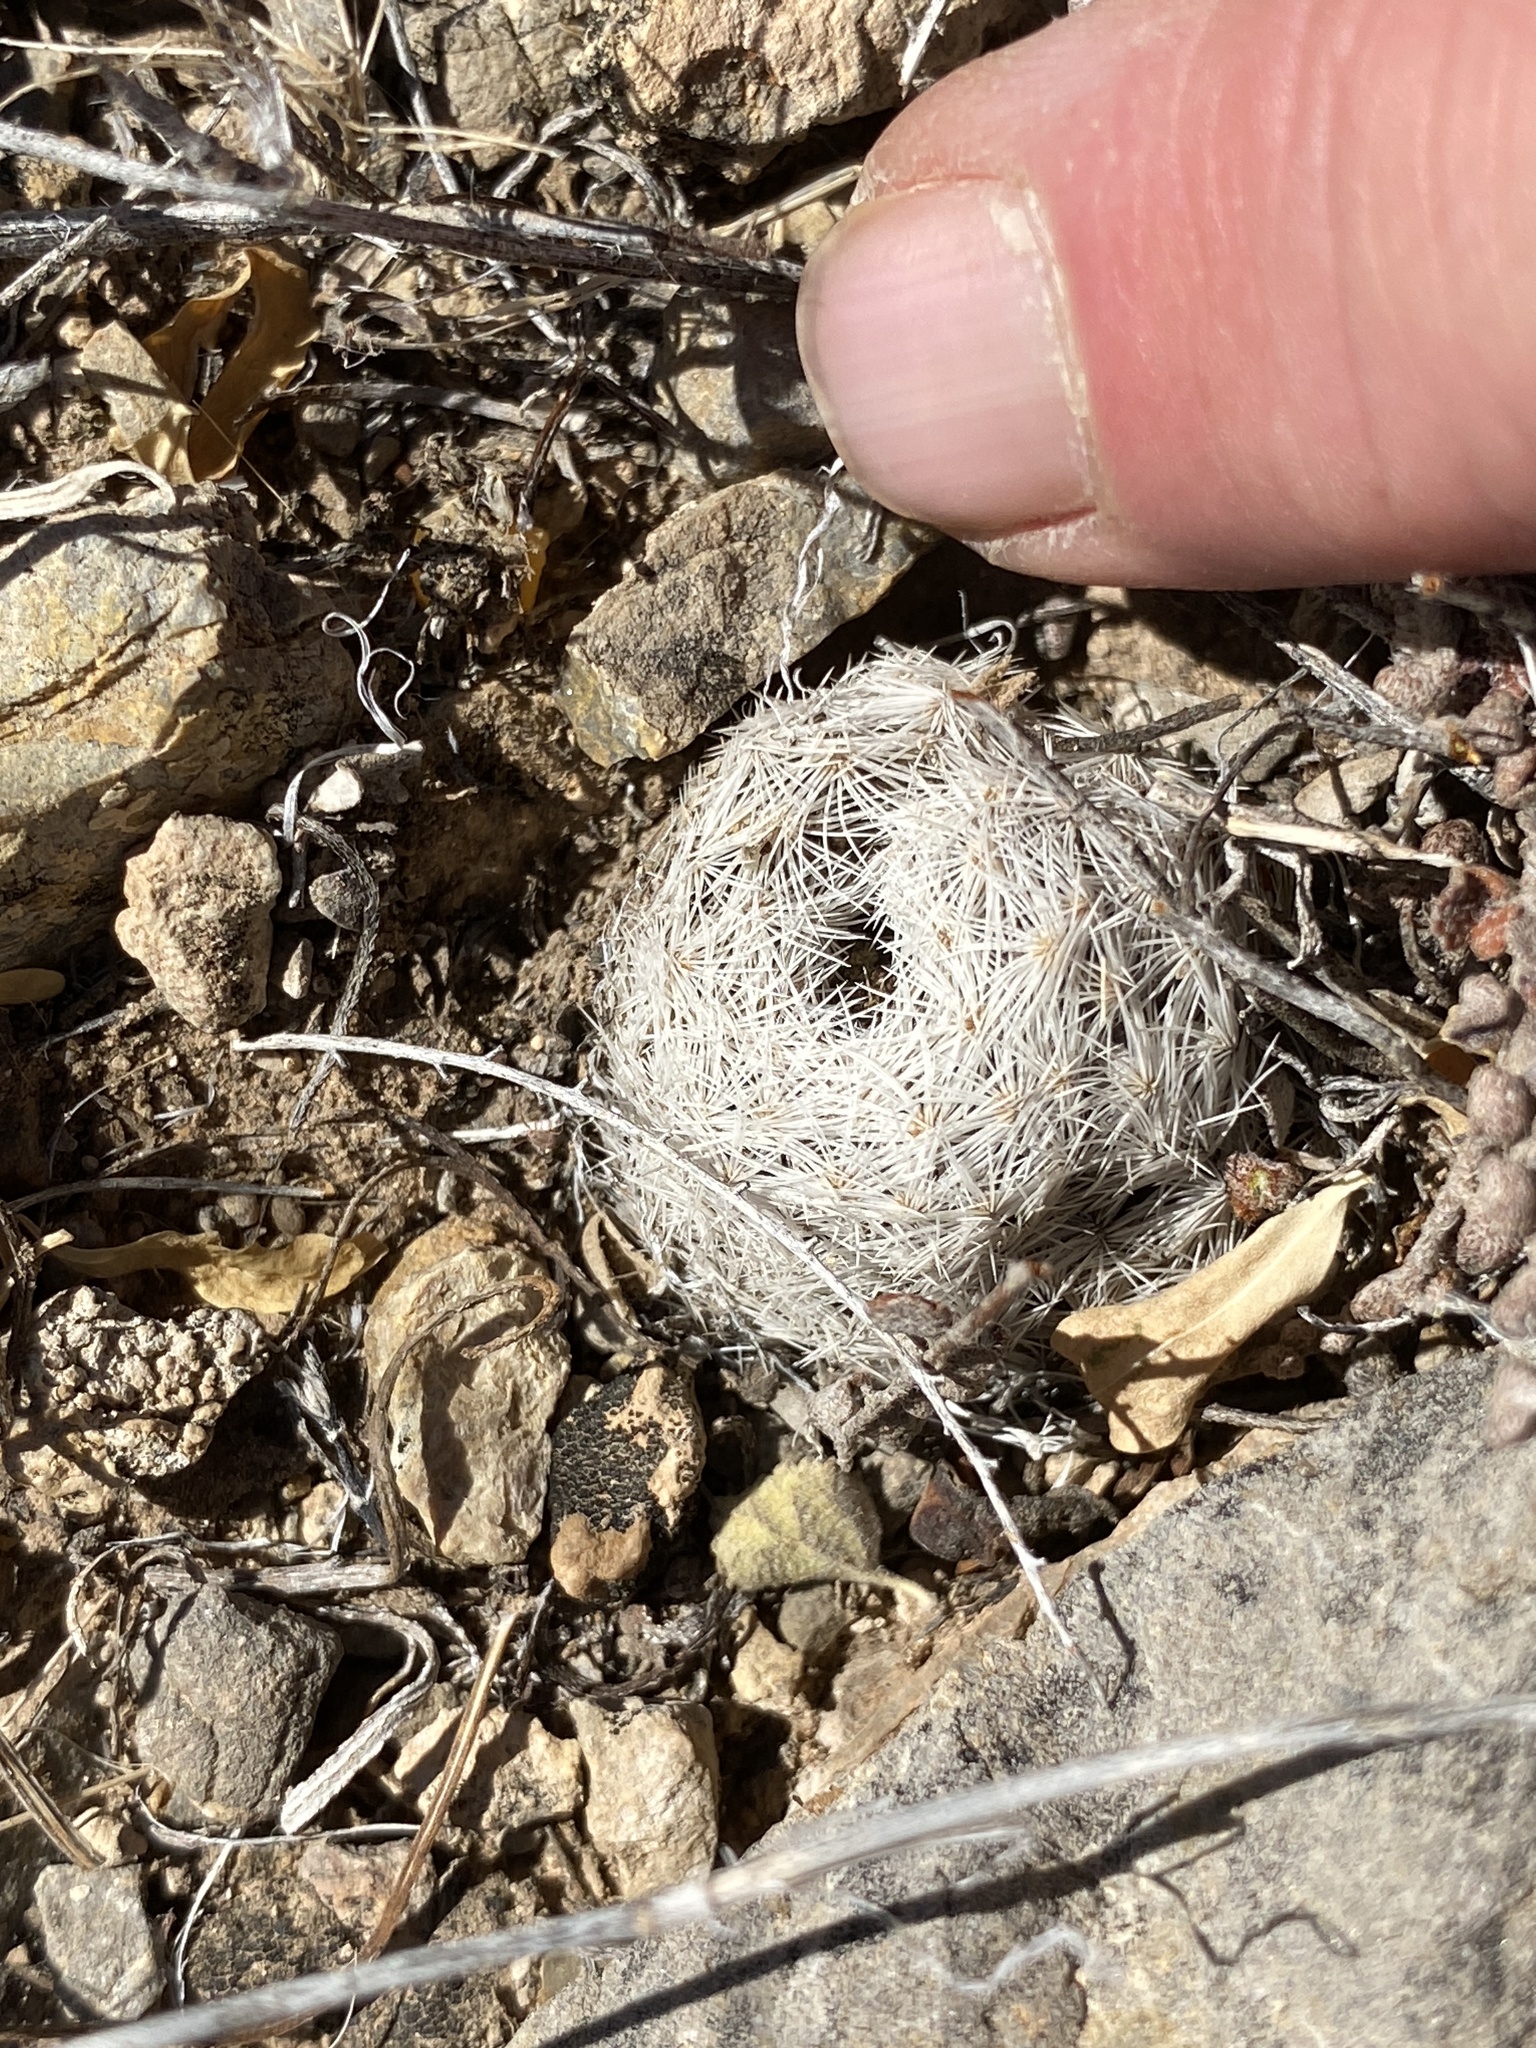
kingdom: Plantae
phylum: Tracheophyta
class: Magnoliopsida
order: Caryophyllales
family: Cactaceae
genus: Mammillaria
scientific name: Mammillaria lasiacantha
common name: Lace-spine nipple cactus
